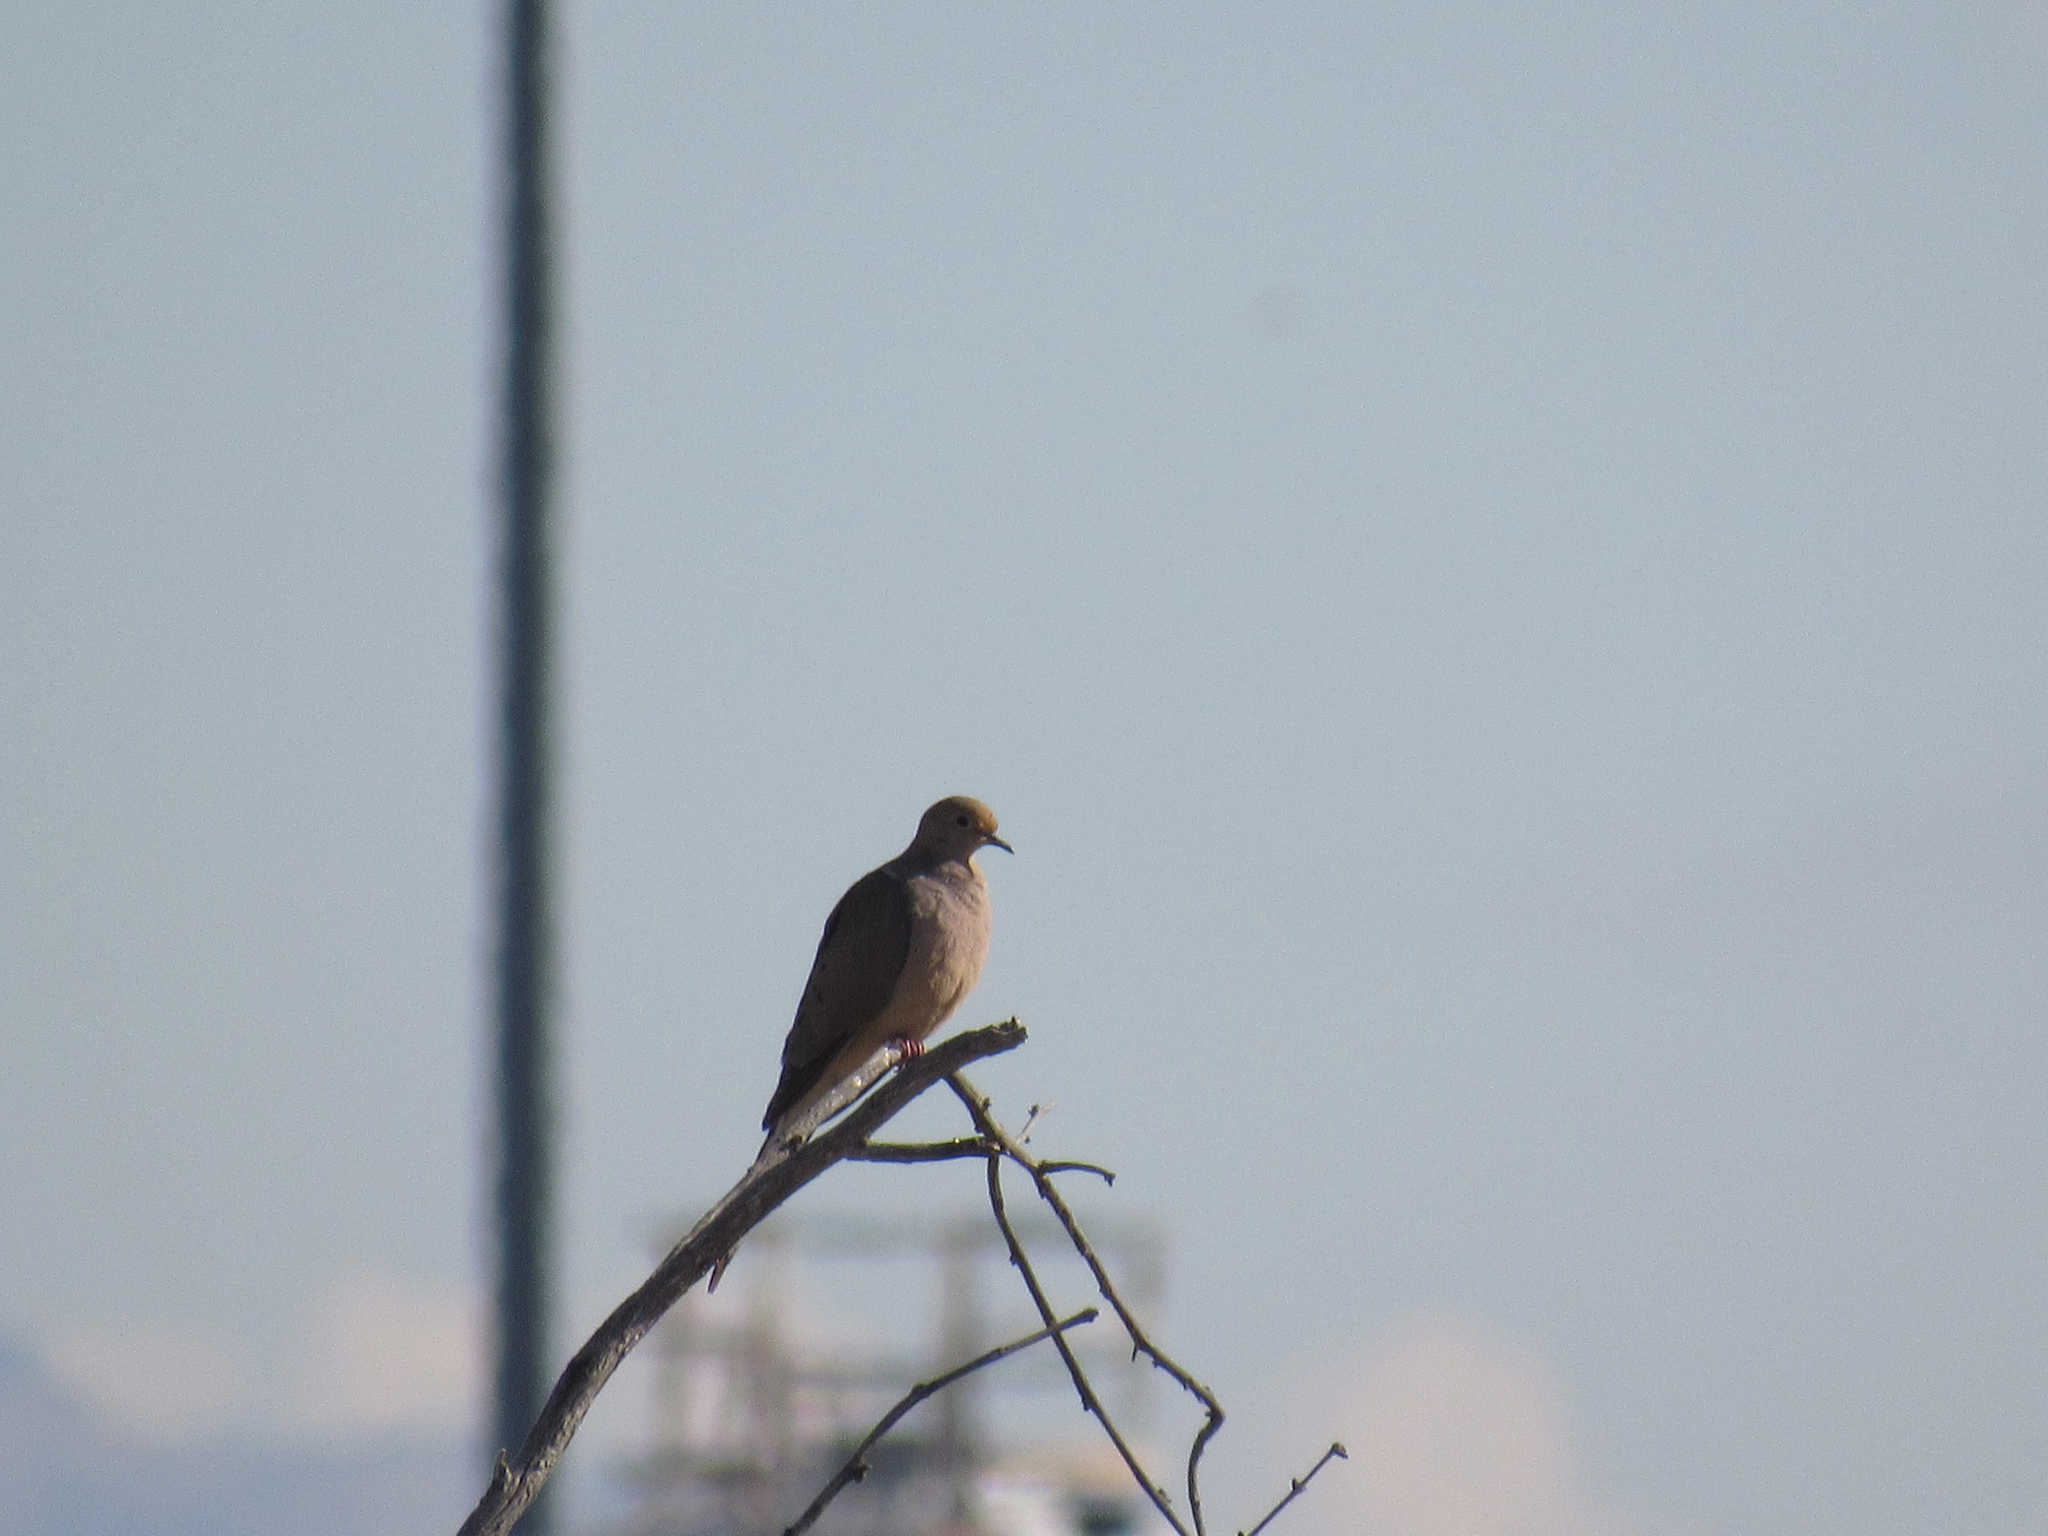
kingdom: Animalia
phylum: Chordata
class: Aves
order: Columbiformes
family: Columbidae
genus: Zenaida
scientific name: Zenaida macroura
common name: Mourning dove
